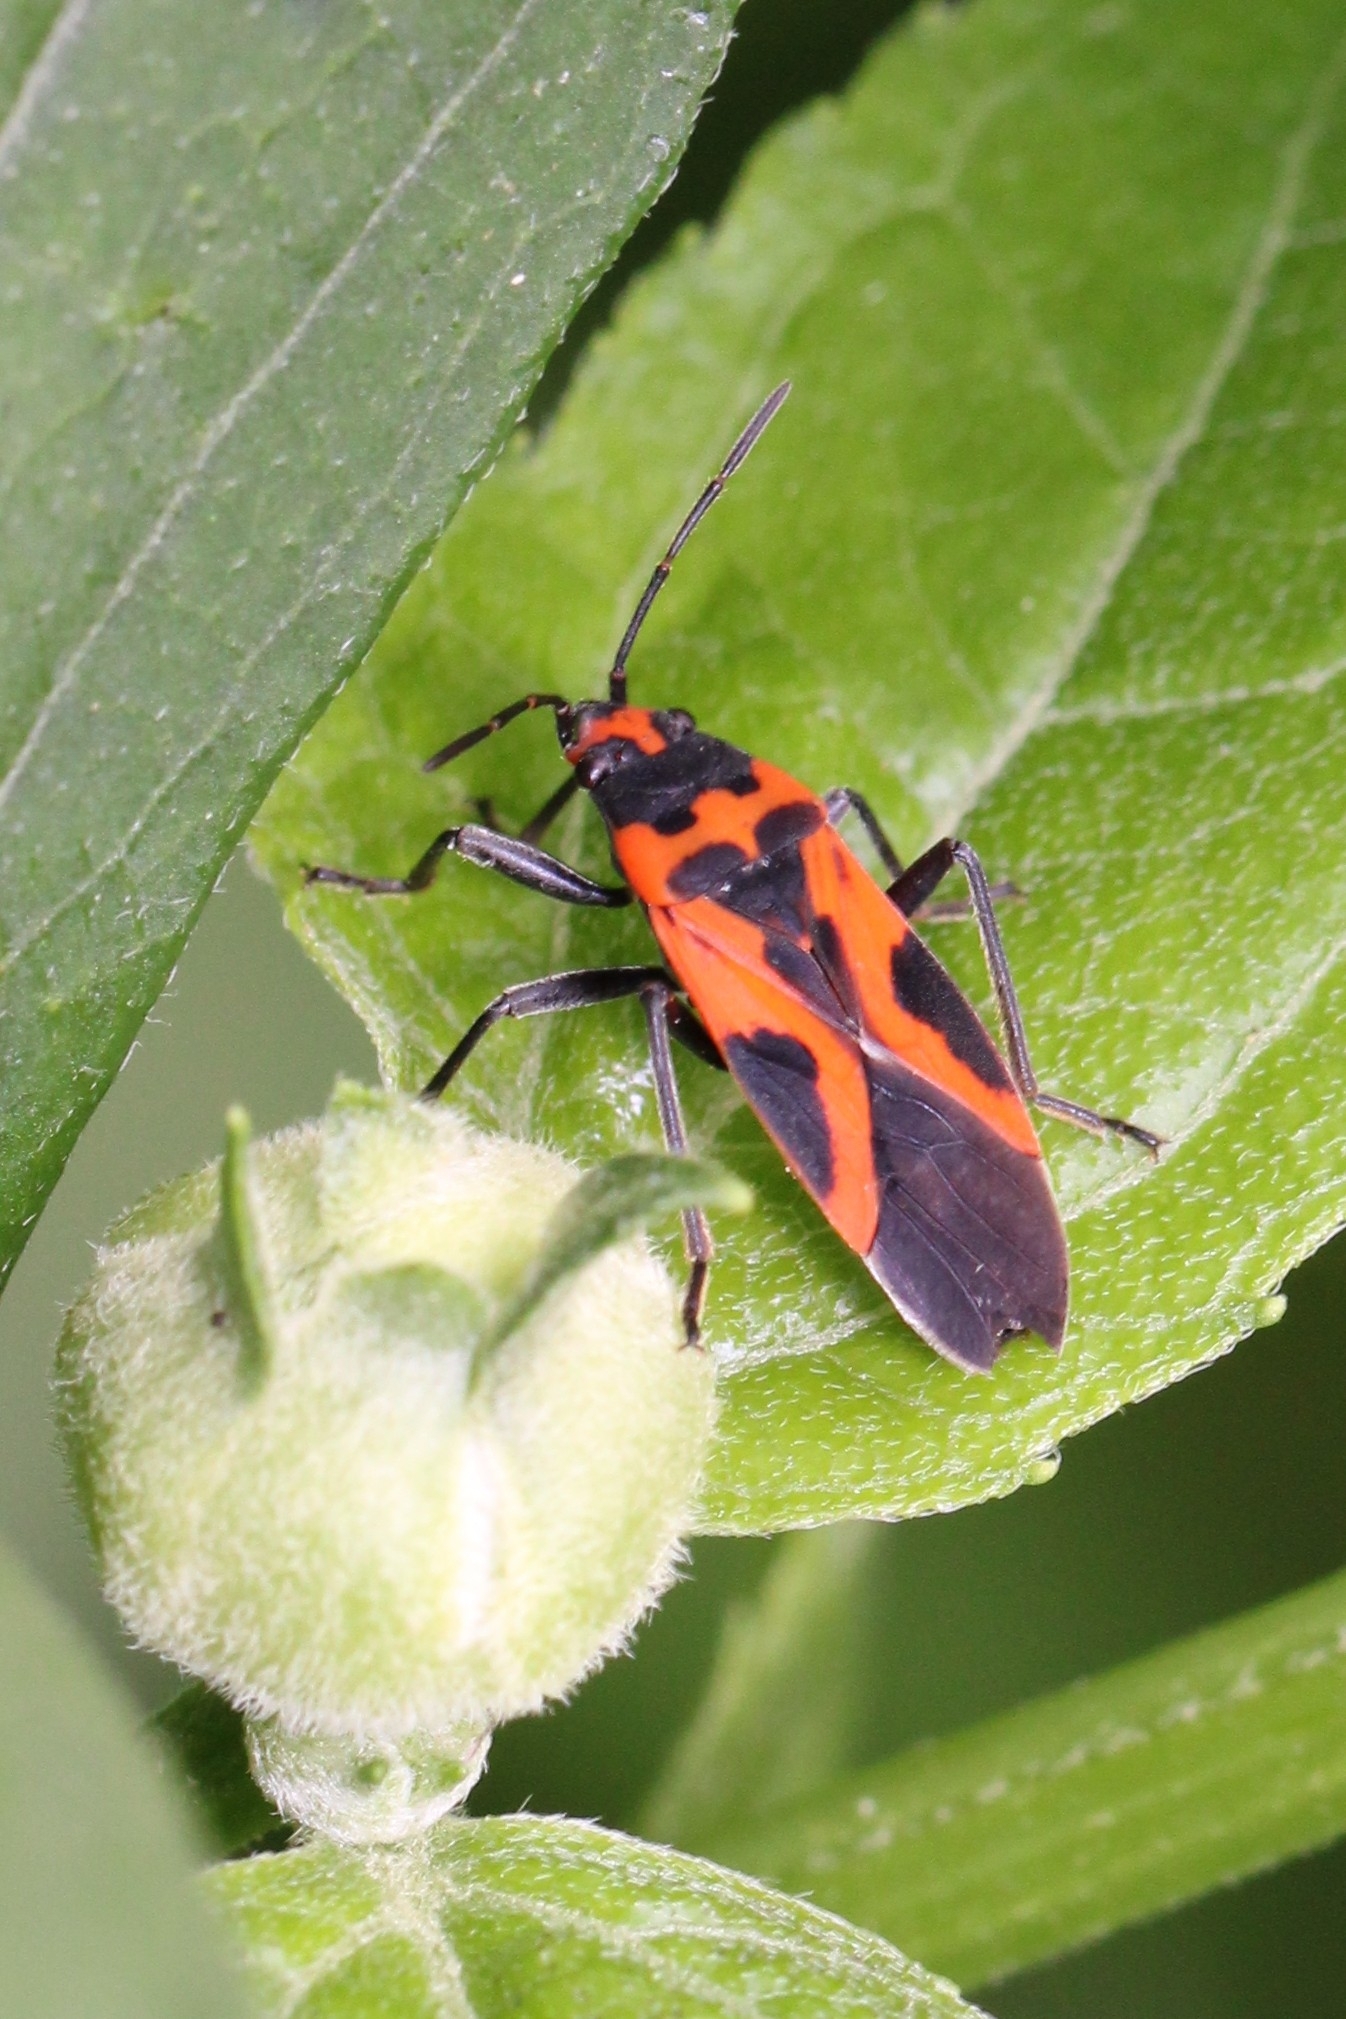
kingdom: Animalia
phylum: Arthropoda
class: Insecta
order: Hemiptera
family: Lygaeidae
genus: Lygaeus
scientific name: Lygaeus turcicus
